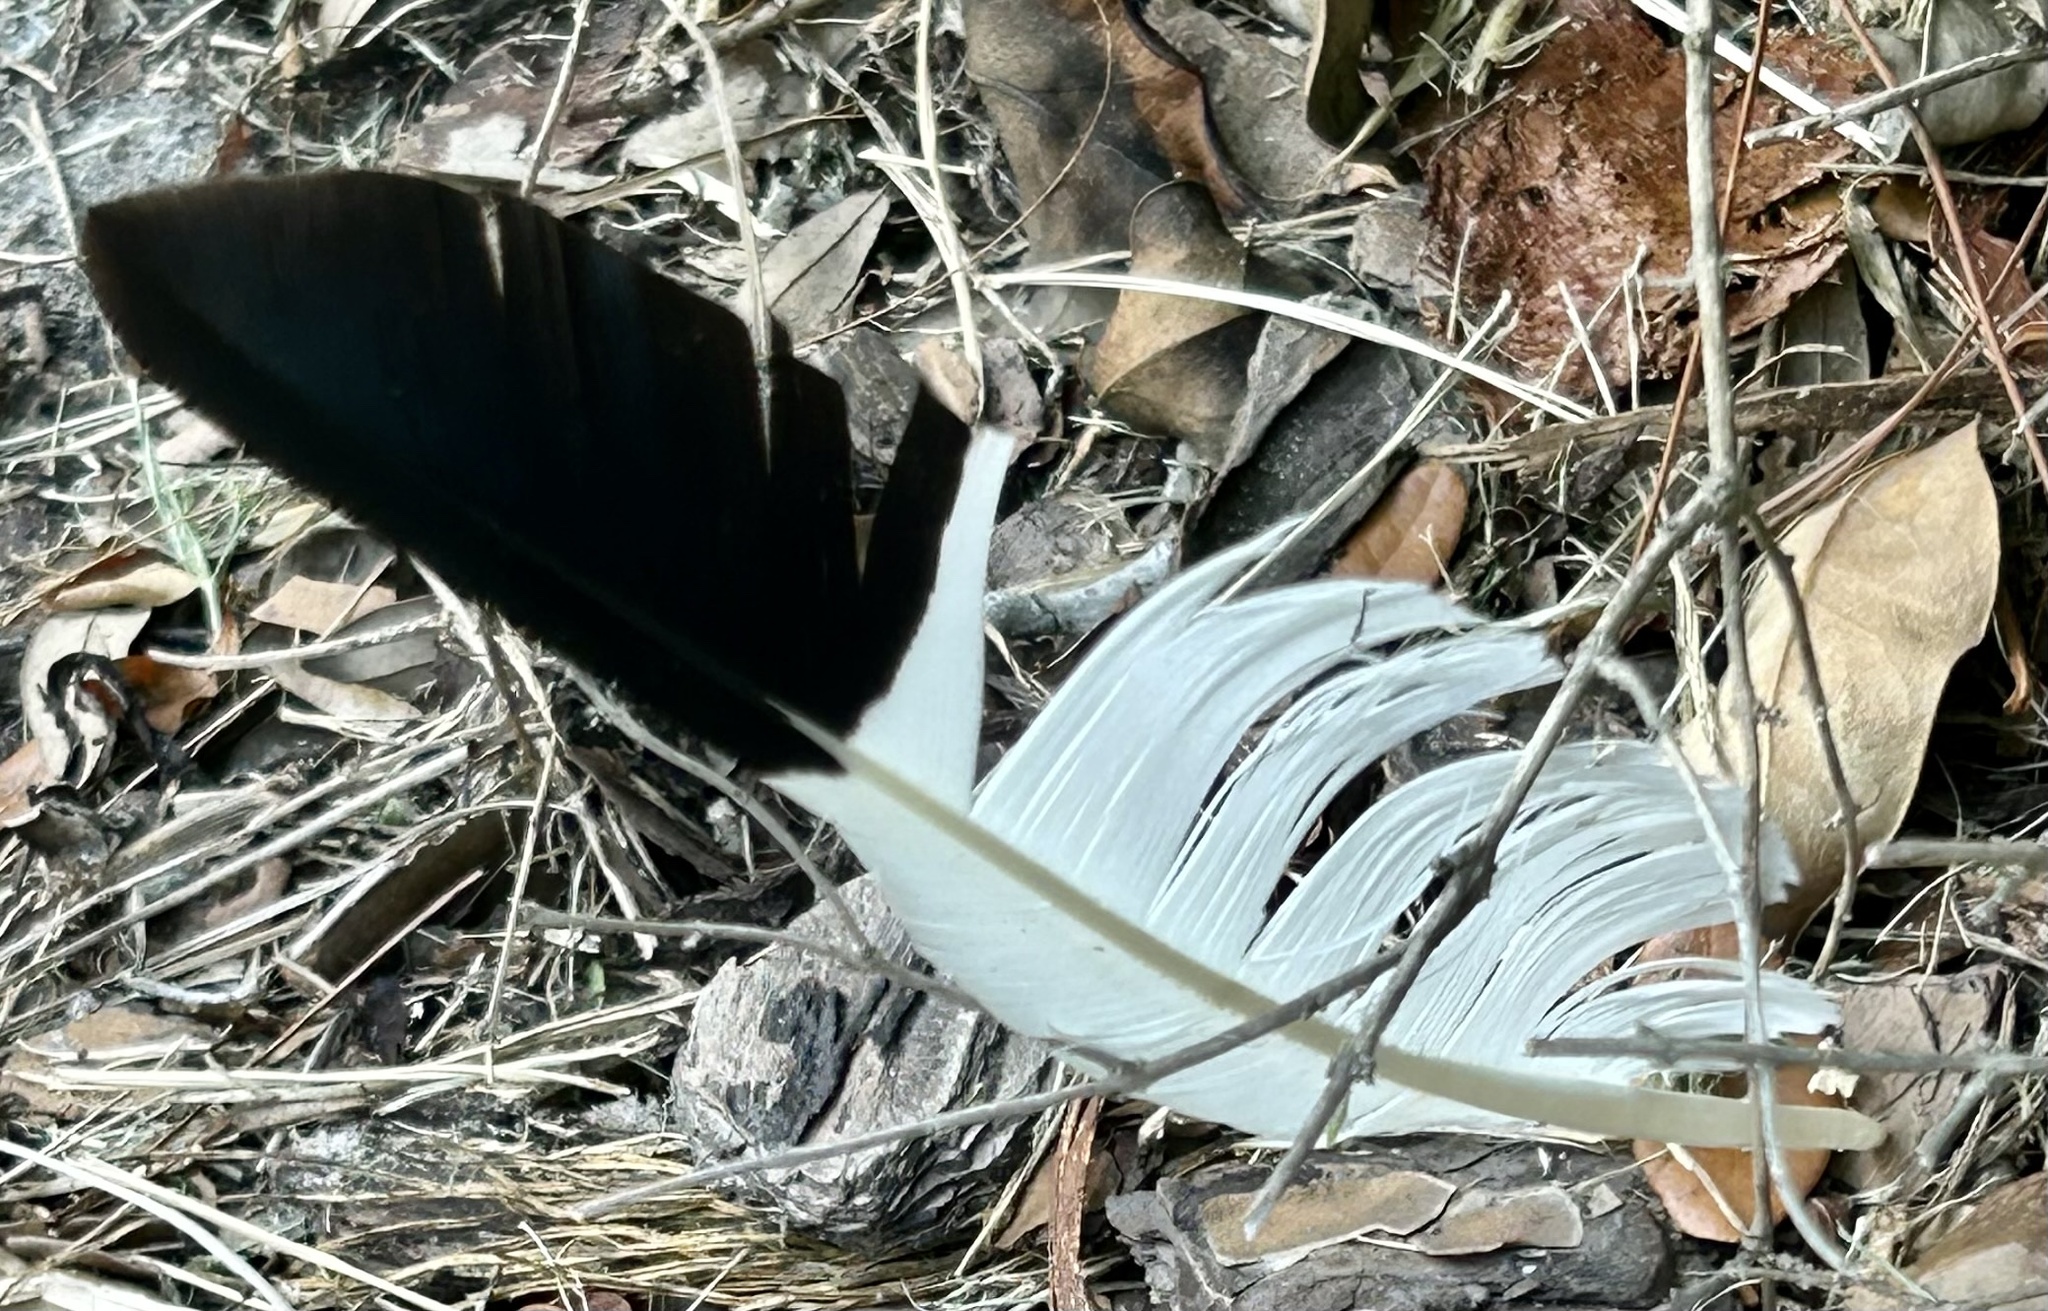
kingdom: Animalia
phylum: Chordata
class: Aves
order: Pelecaniformes
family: Threskiornithidae
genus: Eudocimus
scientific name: Eudocimus albus
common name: White ibis
